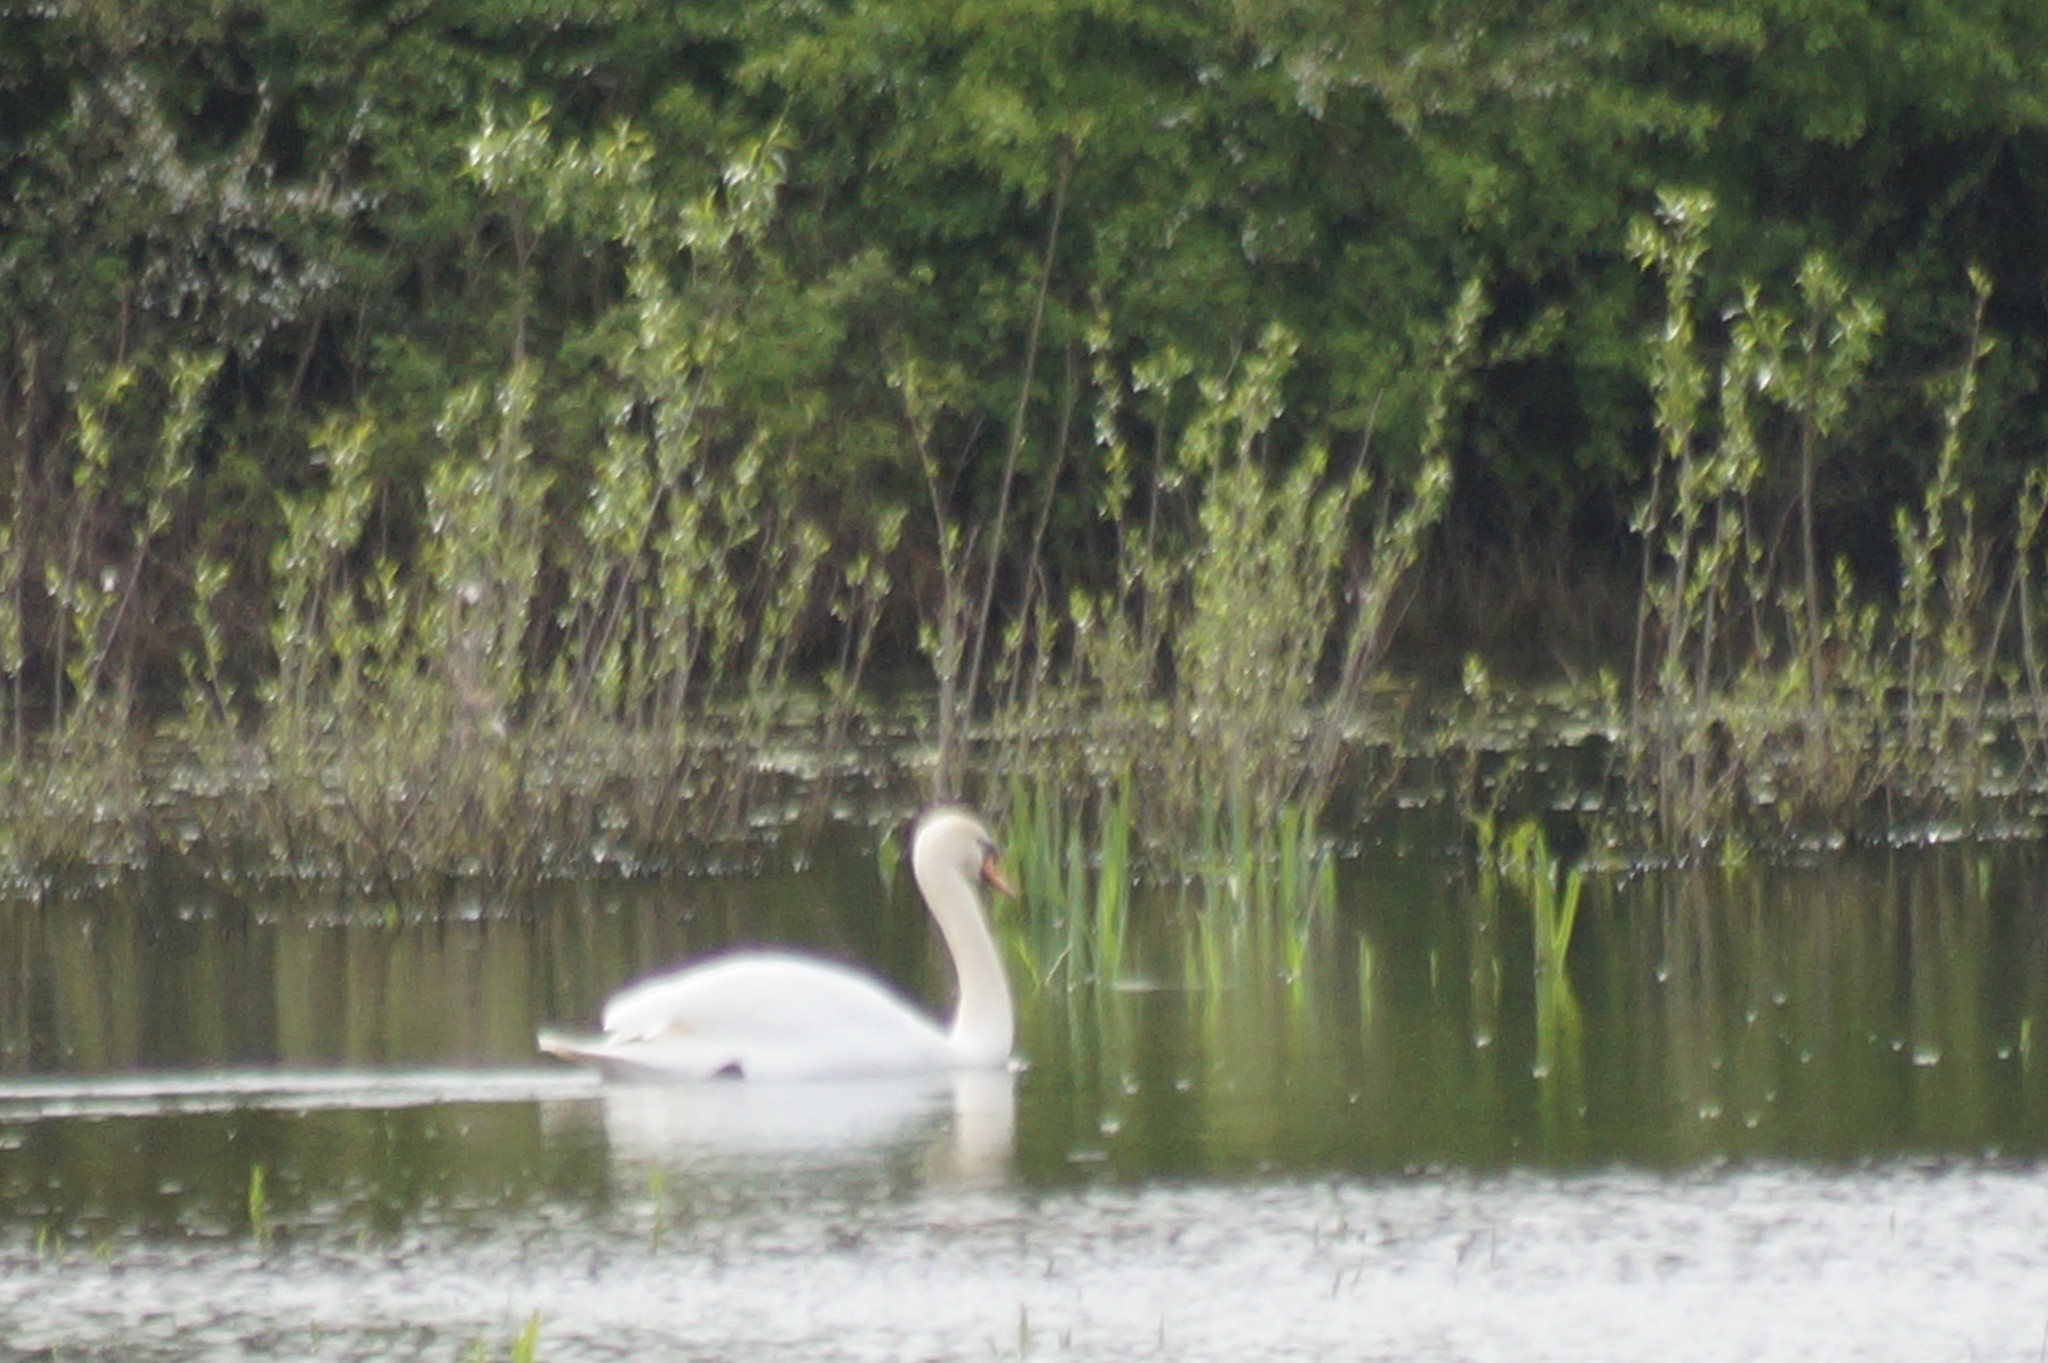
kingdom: Animalia
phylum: Chordata
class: Aves
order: Anseriformes
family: Anatidae
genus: Cygnus
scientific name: Cygnus olor
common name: Mute swan
